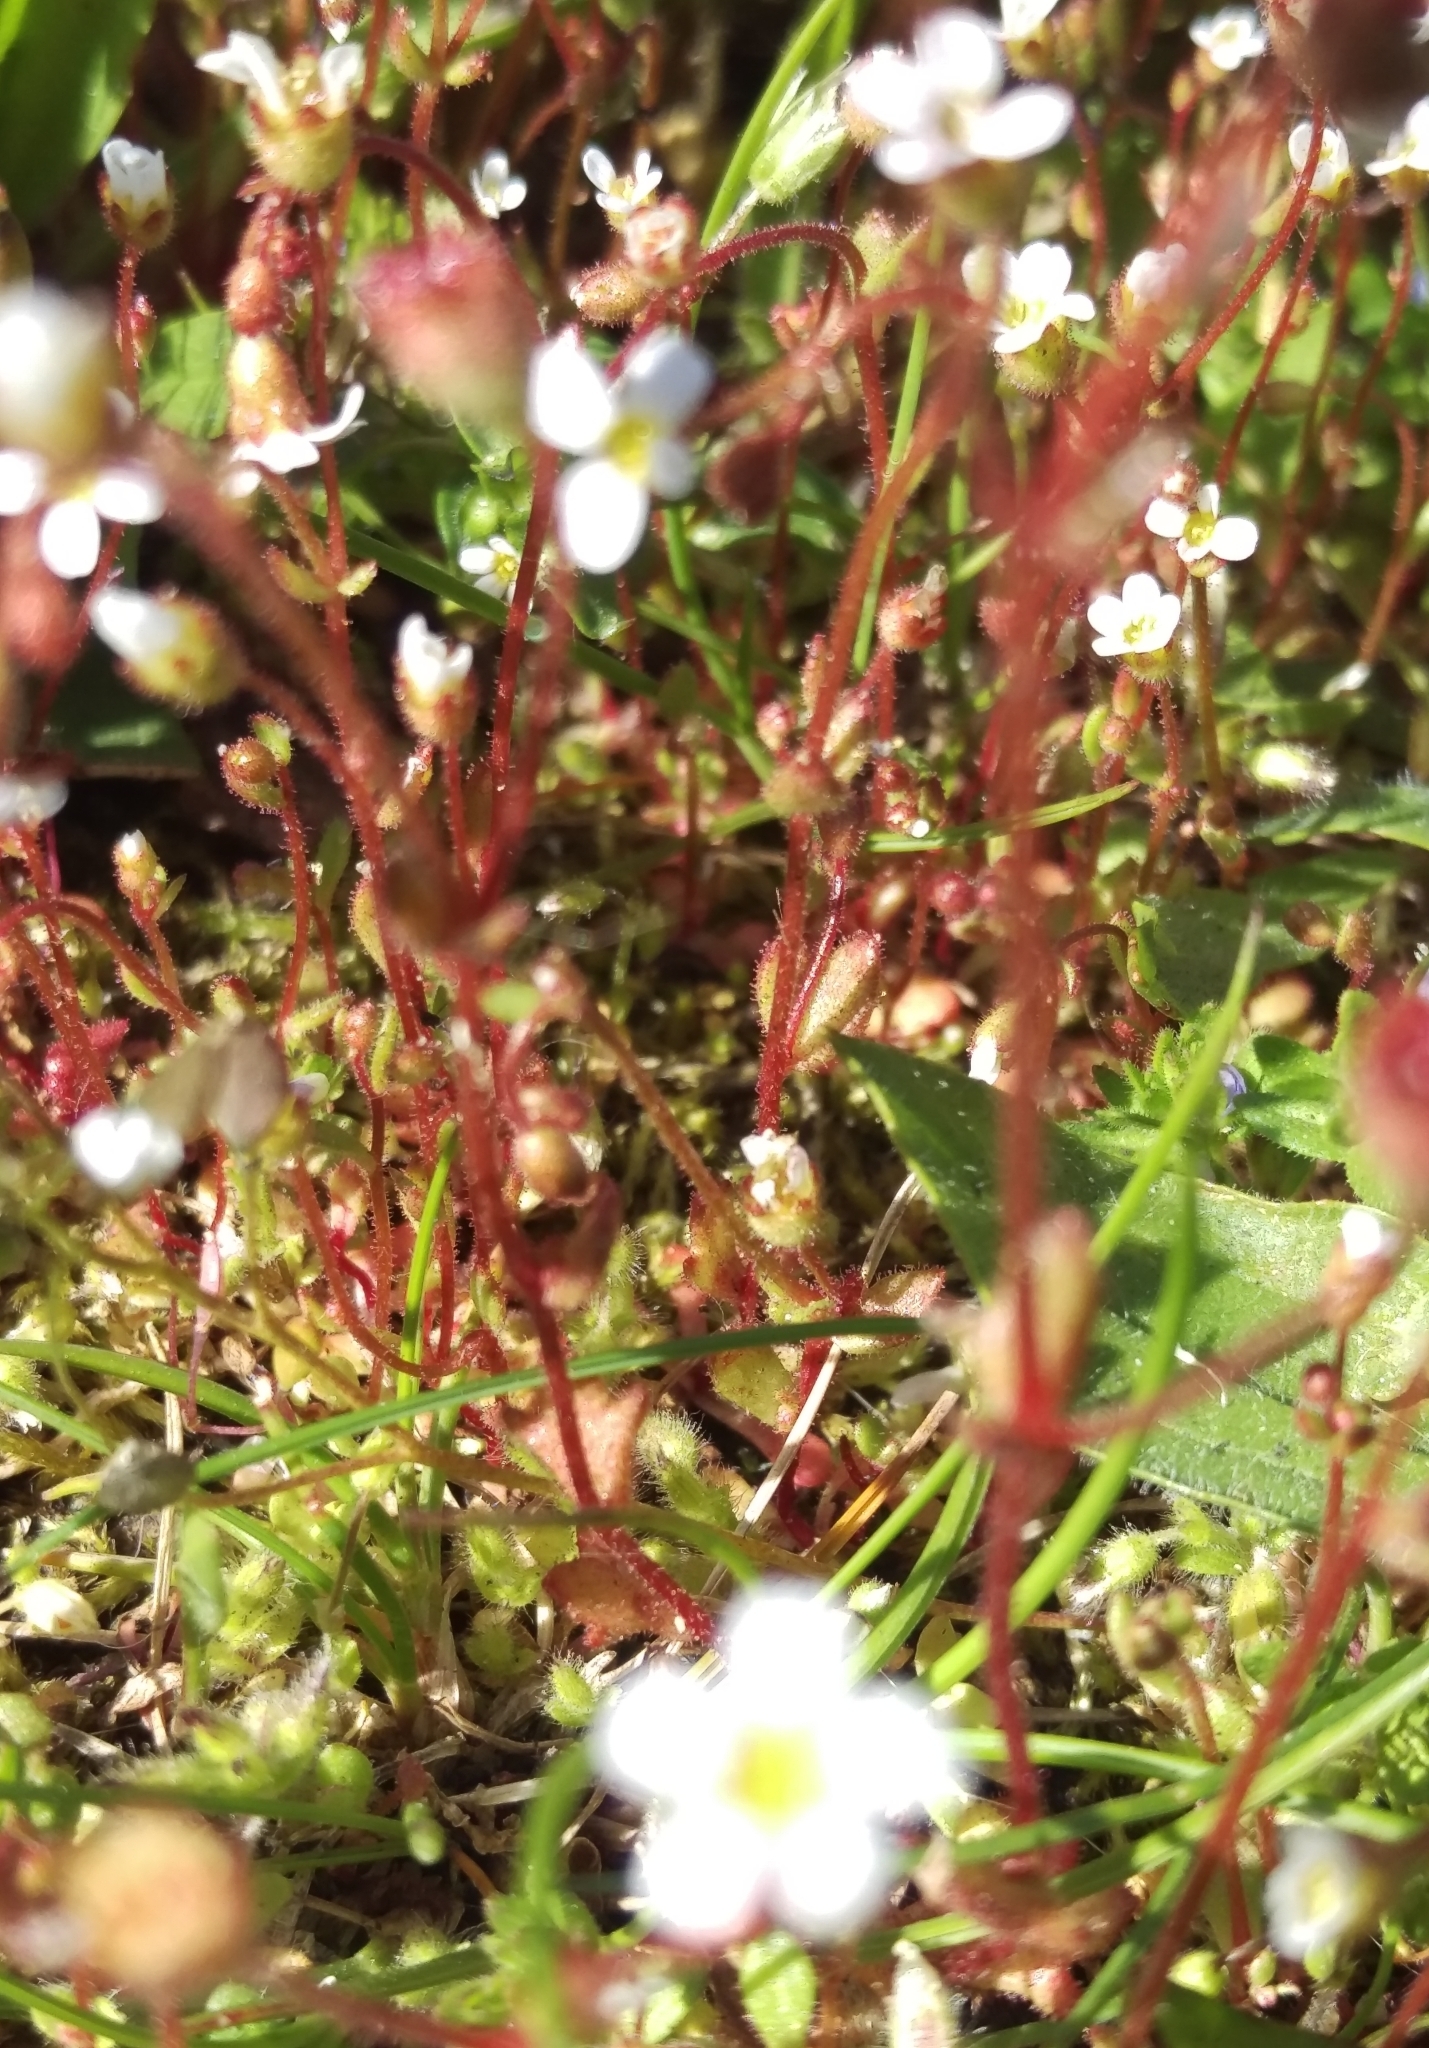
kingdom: Plantae
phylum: Tracheophyta
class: Magnoliopsida
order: Saxifragales
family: Saxifragaceae
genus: Saxifraga
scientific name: Saxifraga tridactylites
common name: Rue-leaved saxifrage
